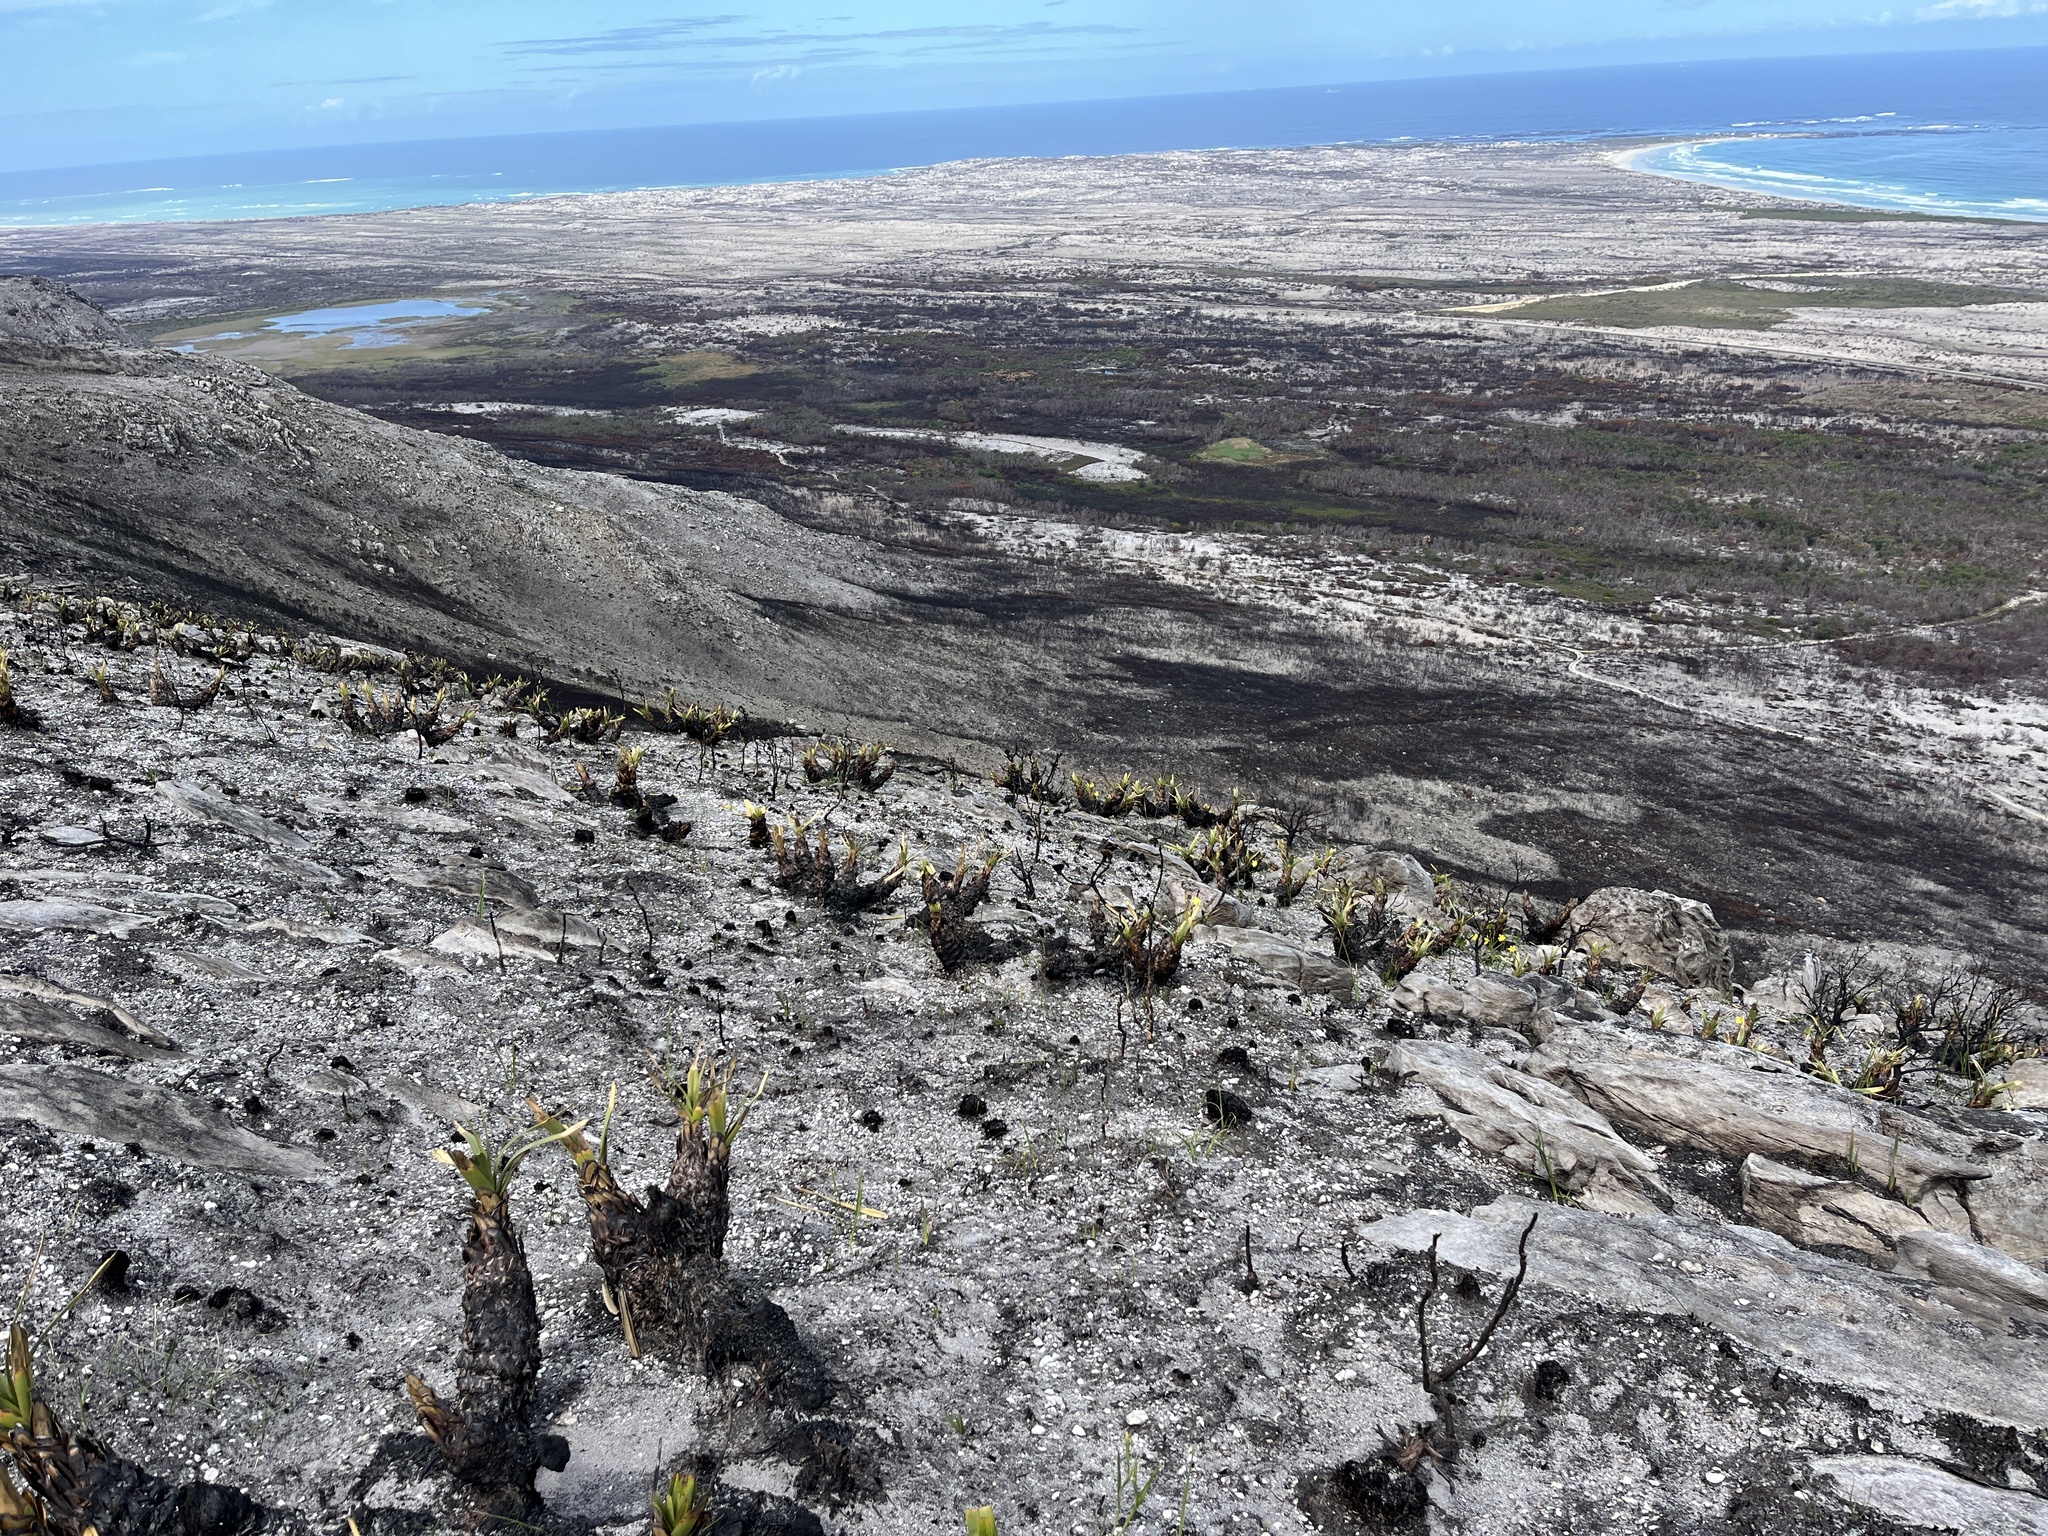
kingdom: Plantae
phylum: Tracheophyta
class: Liliopsida
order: Poales
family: Cyperaceae
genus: Tetraria
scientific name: Tetraria thermalis
